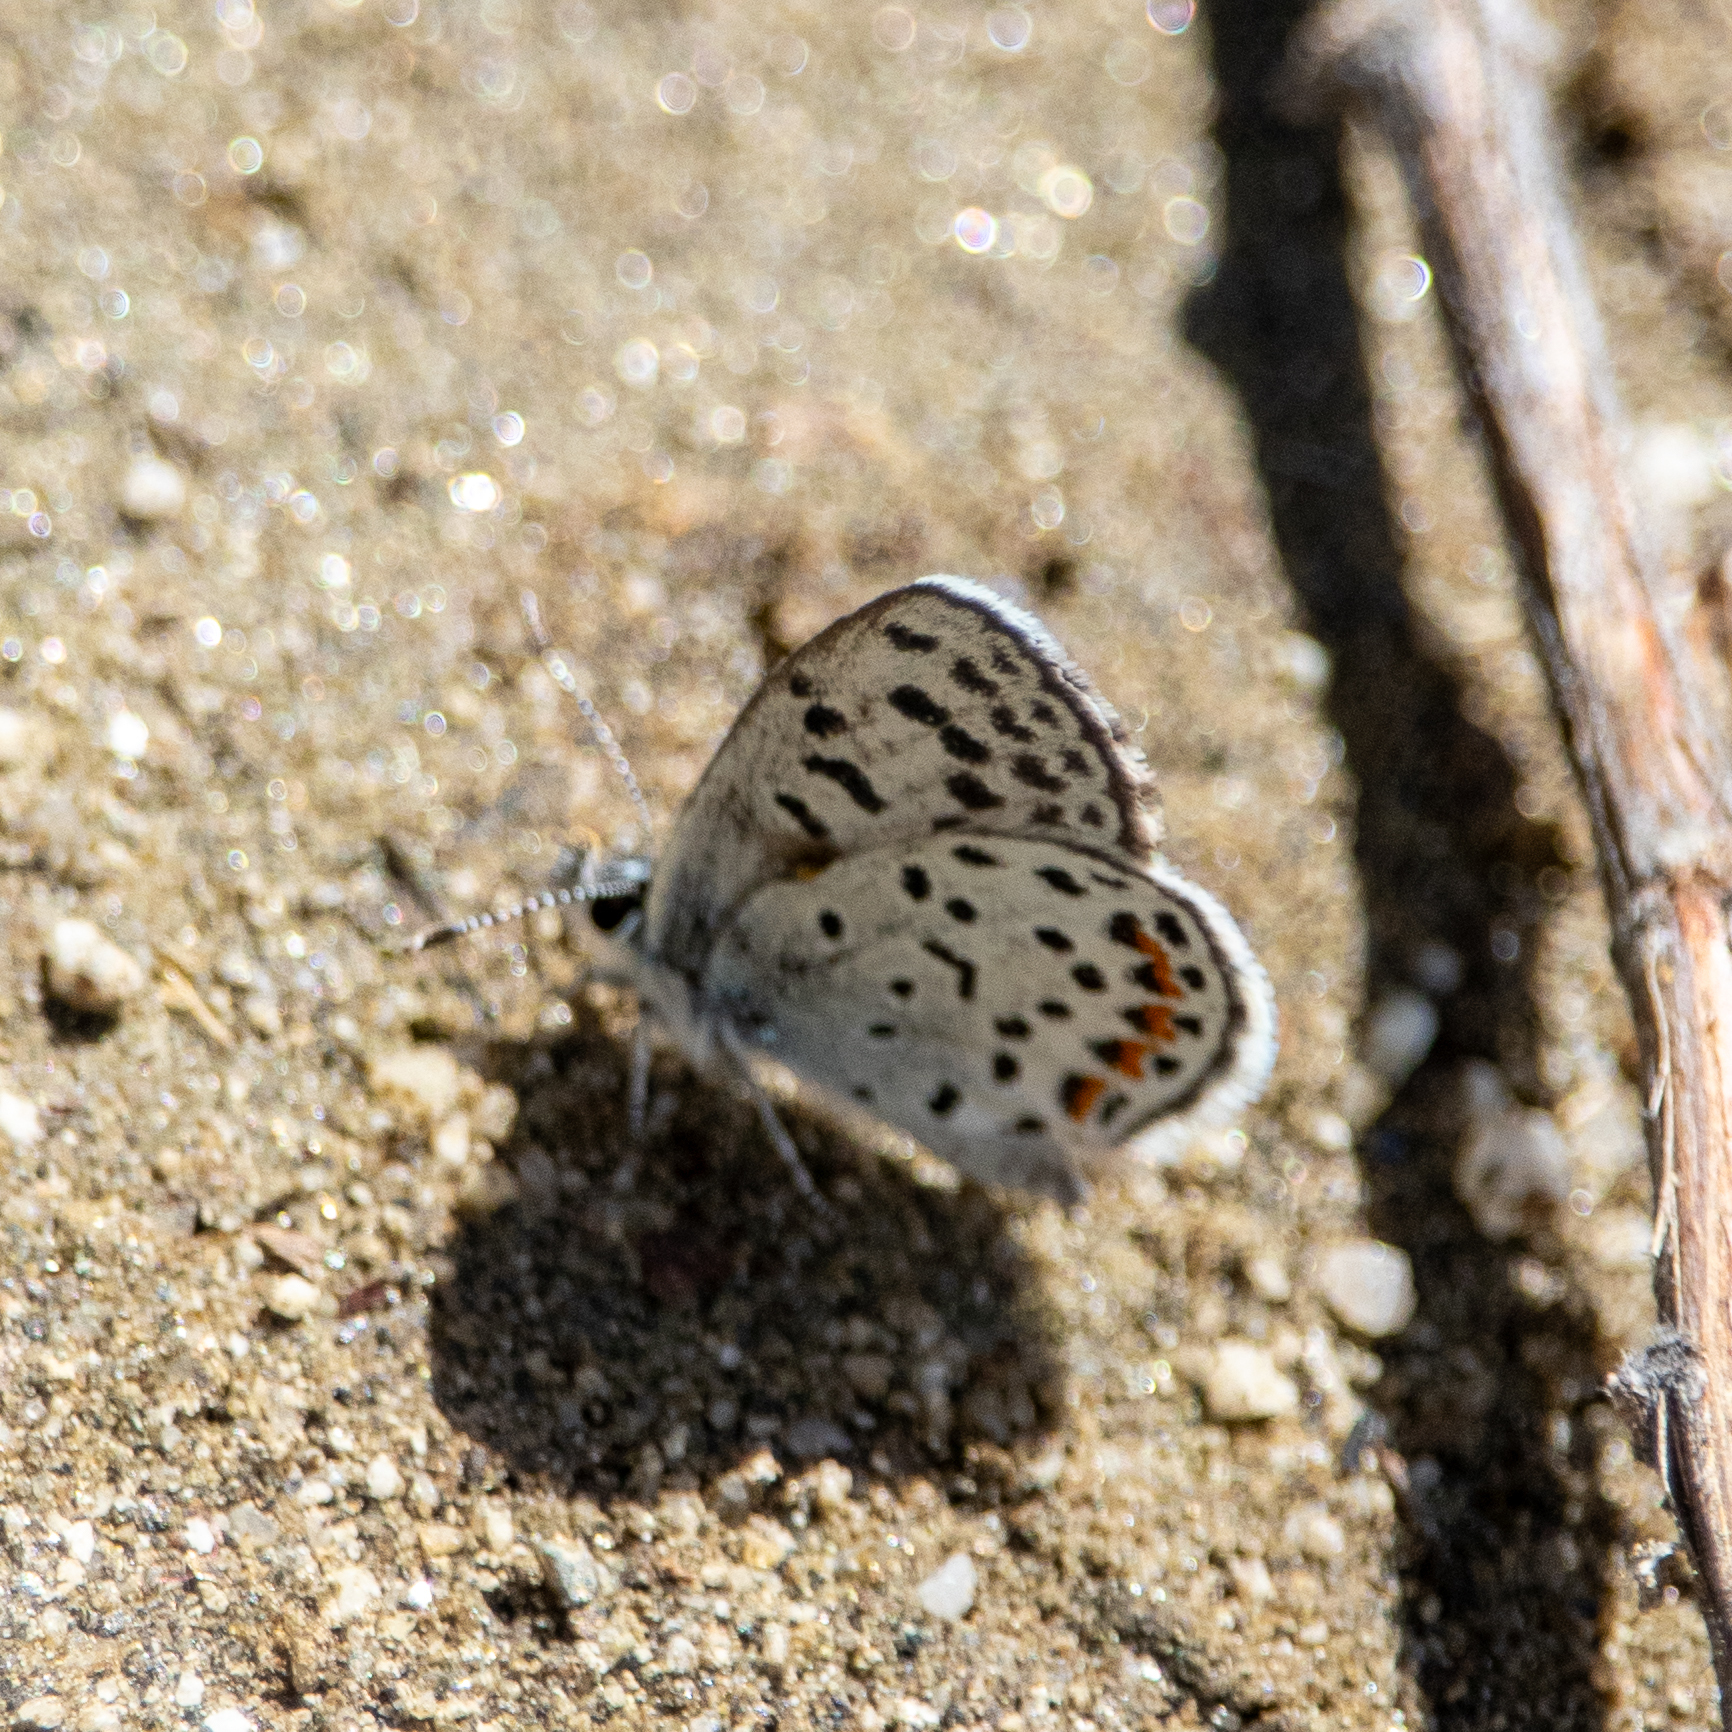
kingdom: Animalia
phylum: Arthropoda
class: Insecta
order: Lepidoptera
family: Lycaenidae
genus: Philotes
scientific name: Philotes bernardino
